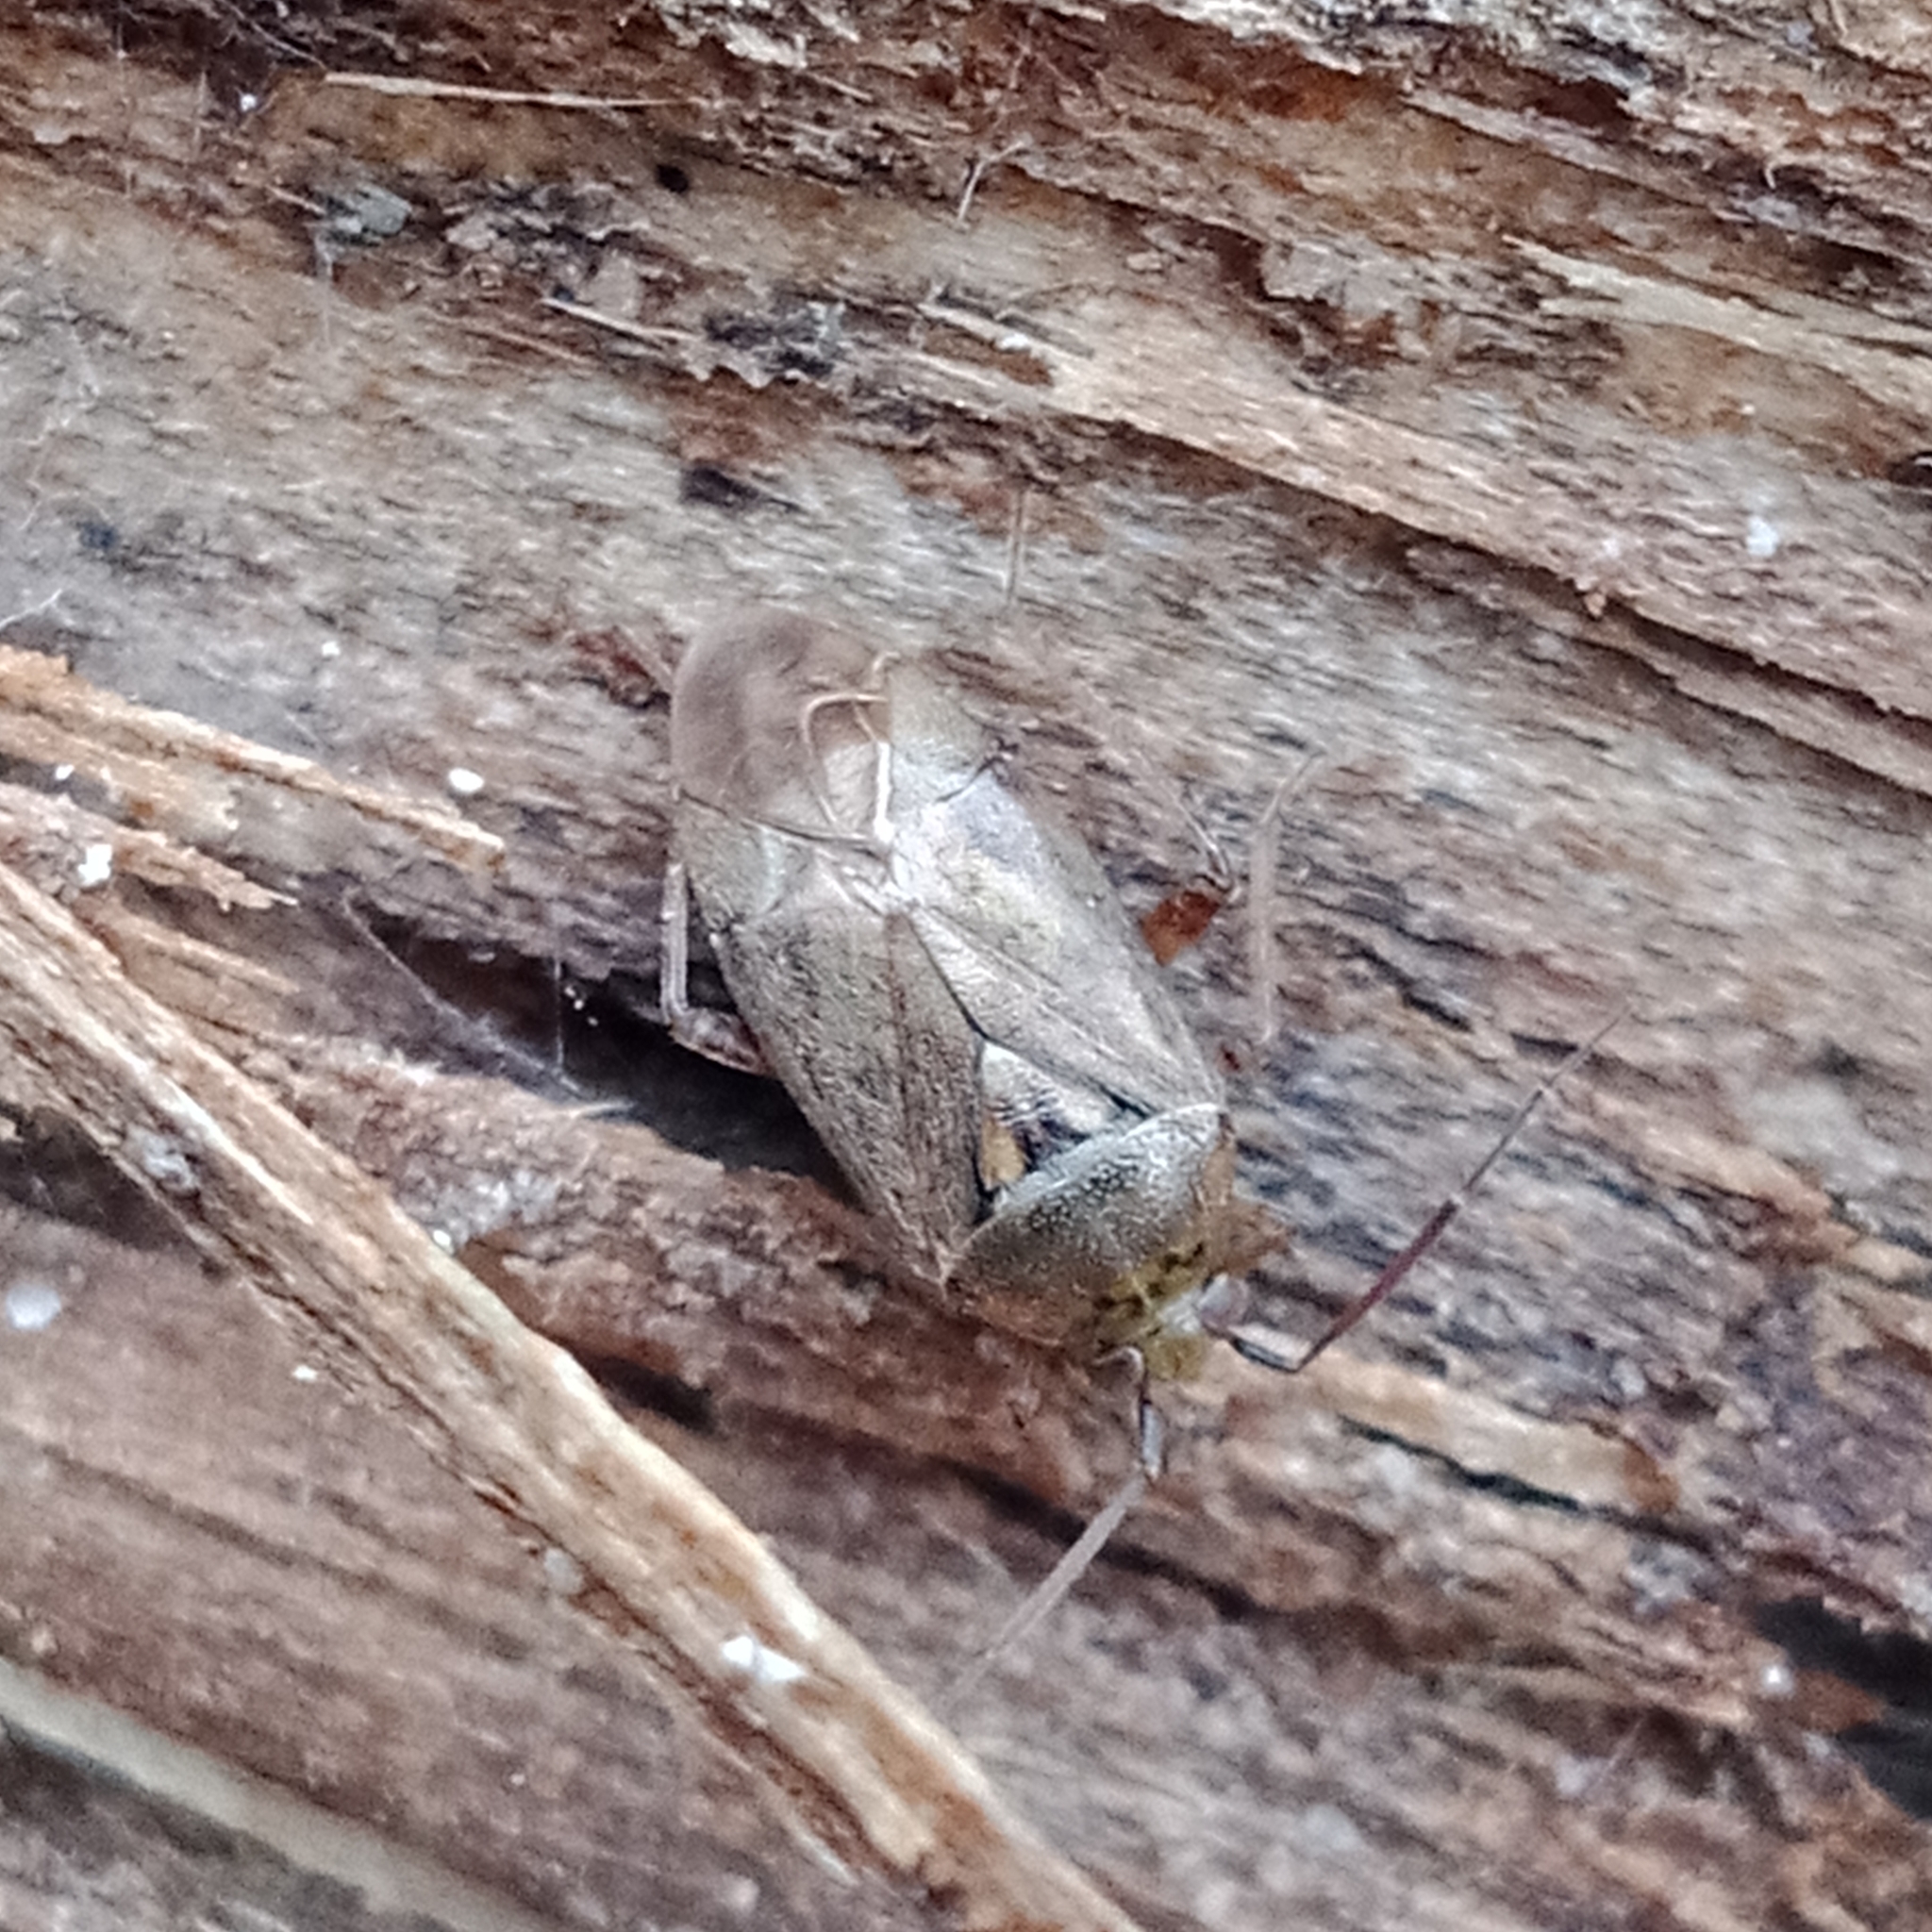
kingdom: Animalia
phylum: Arthropoda
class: Insecta
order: Hemiptera
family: Miridae
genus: Lygus
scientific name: Lygus rugulipennis
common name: European tarnished plant bug
